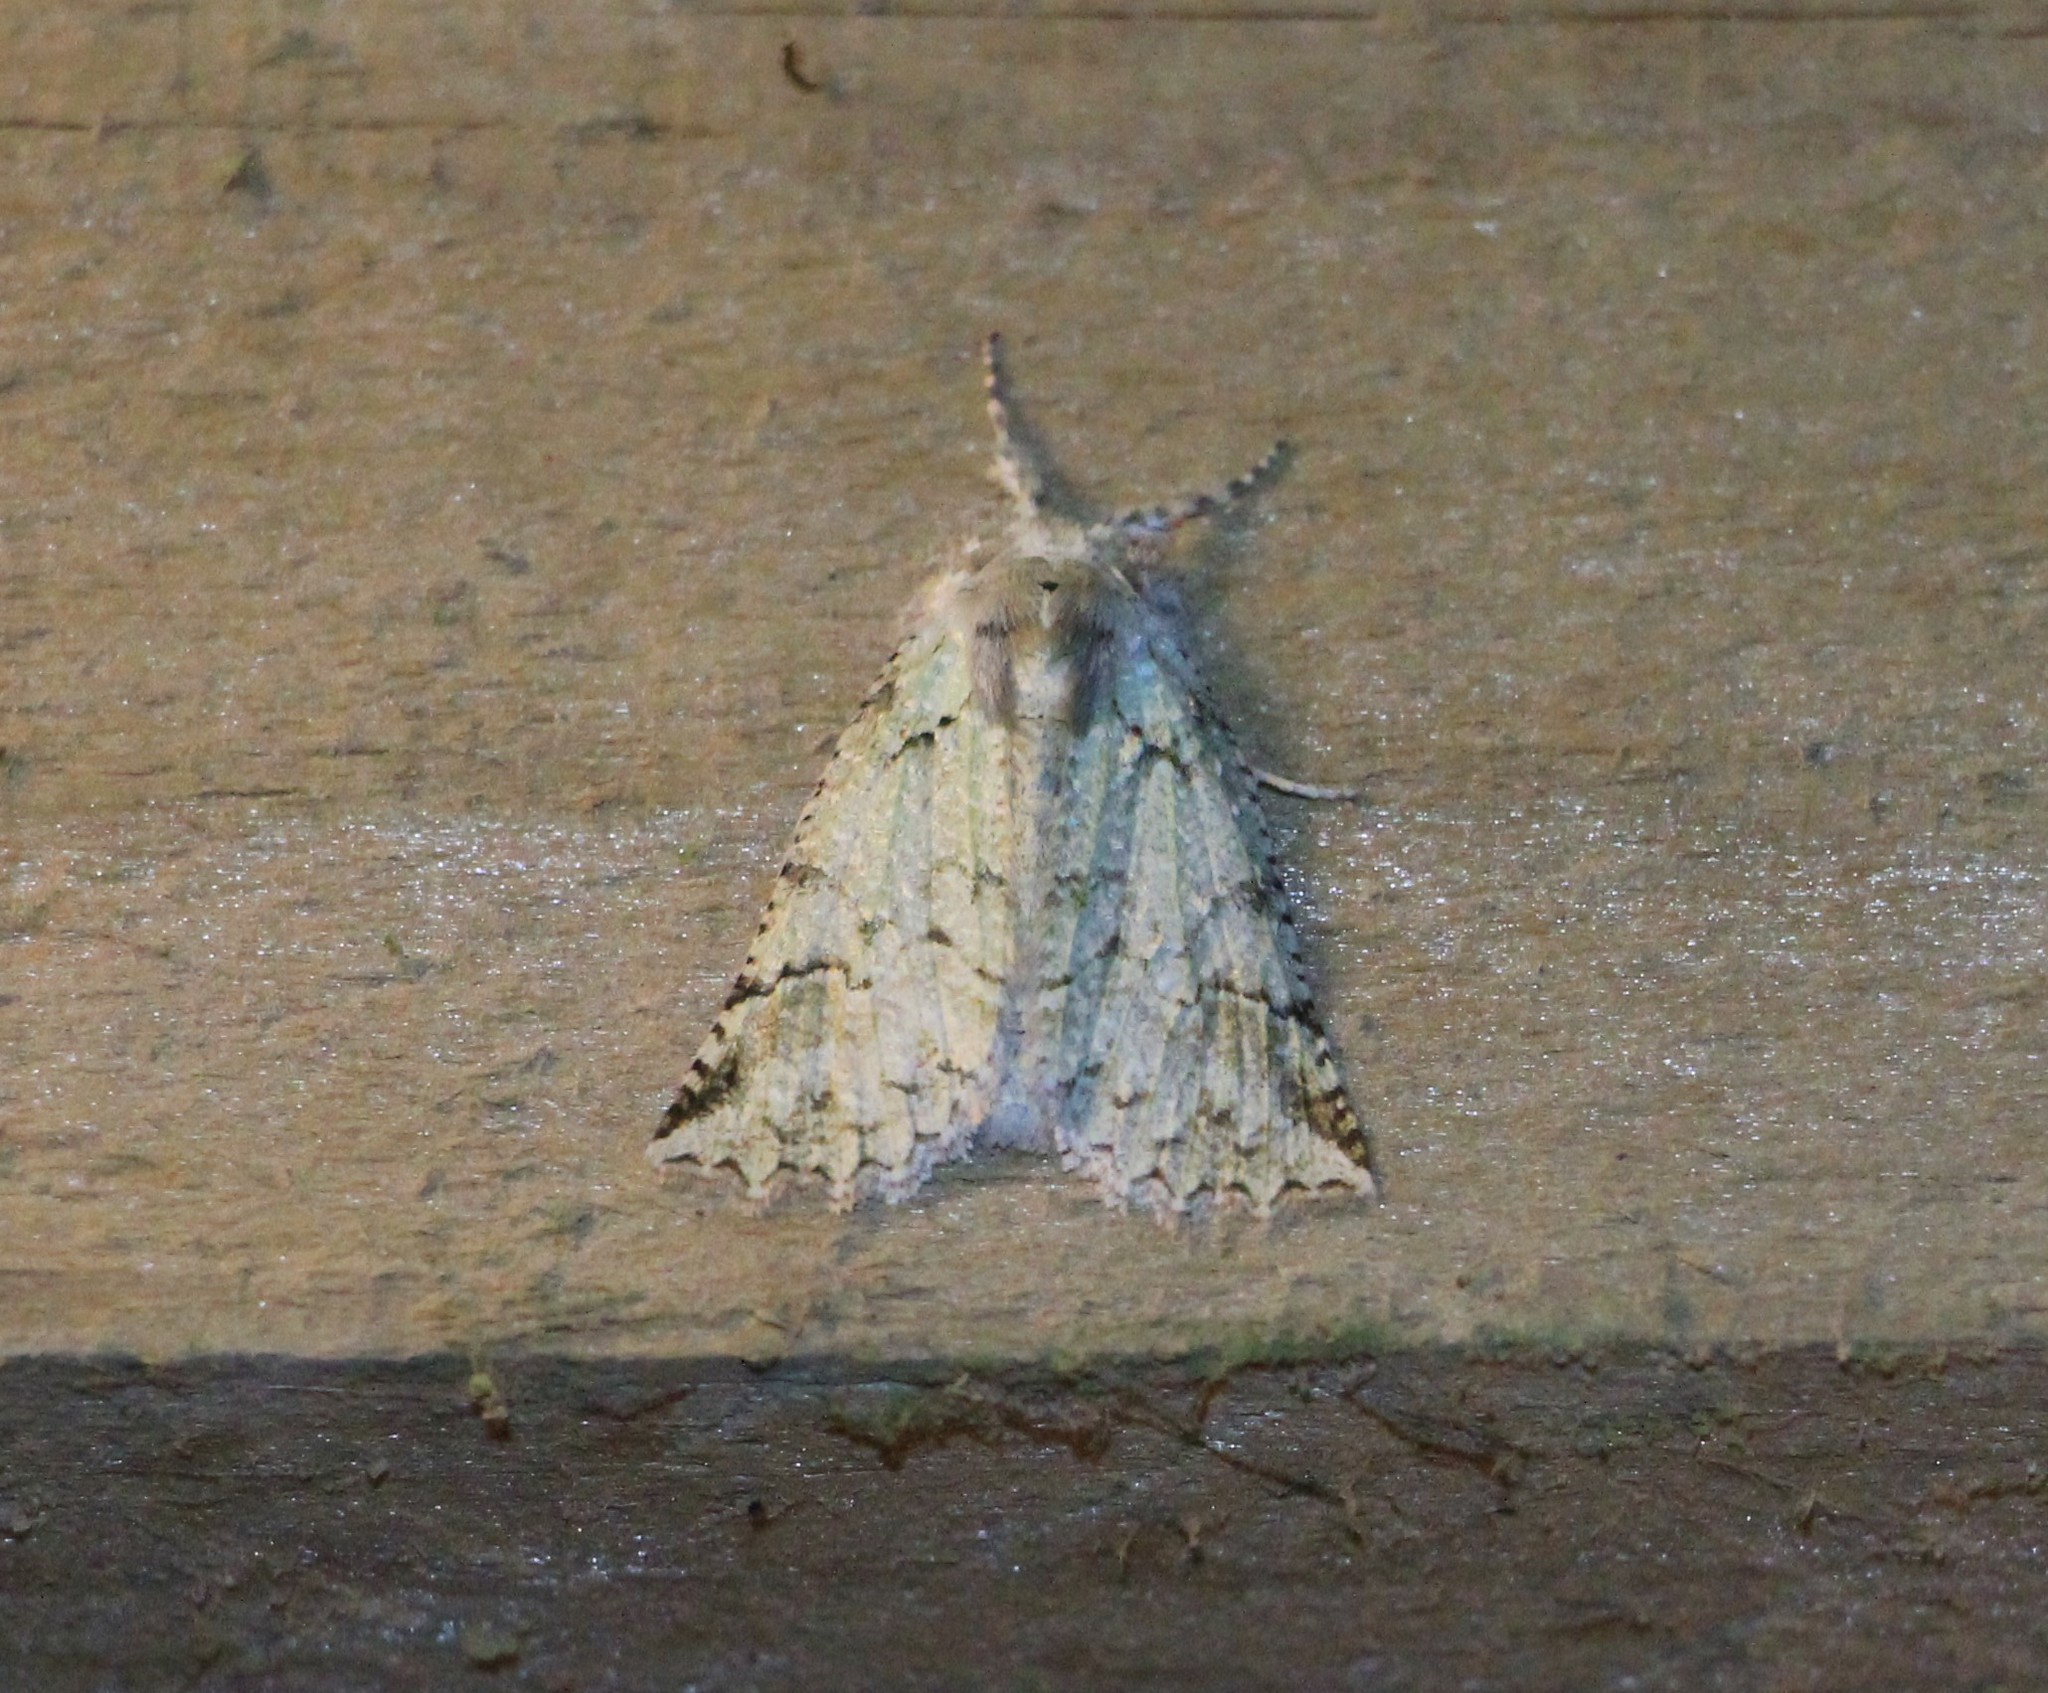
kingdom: Animalia
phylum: Arthropoda
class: Insecta
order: Lepidoptera
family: Geometridae
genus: Declana
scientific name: Declana floccosa
